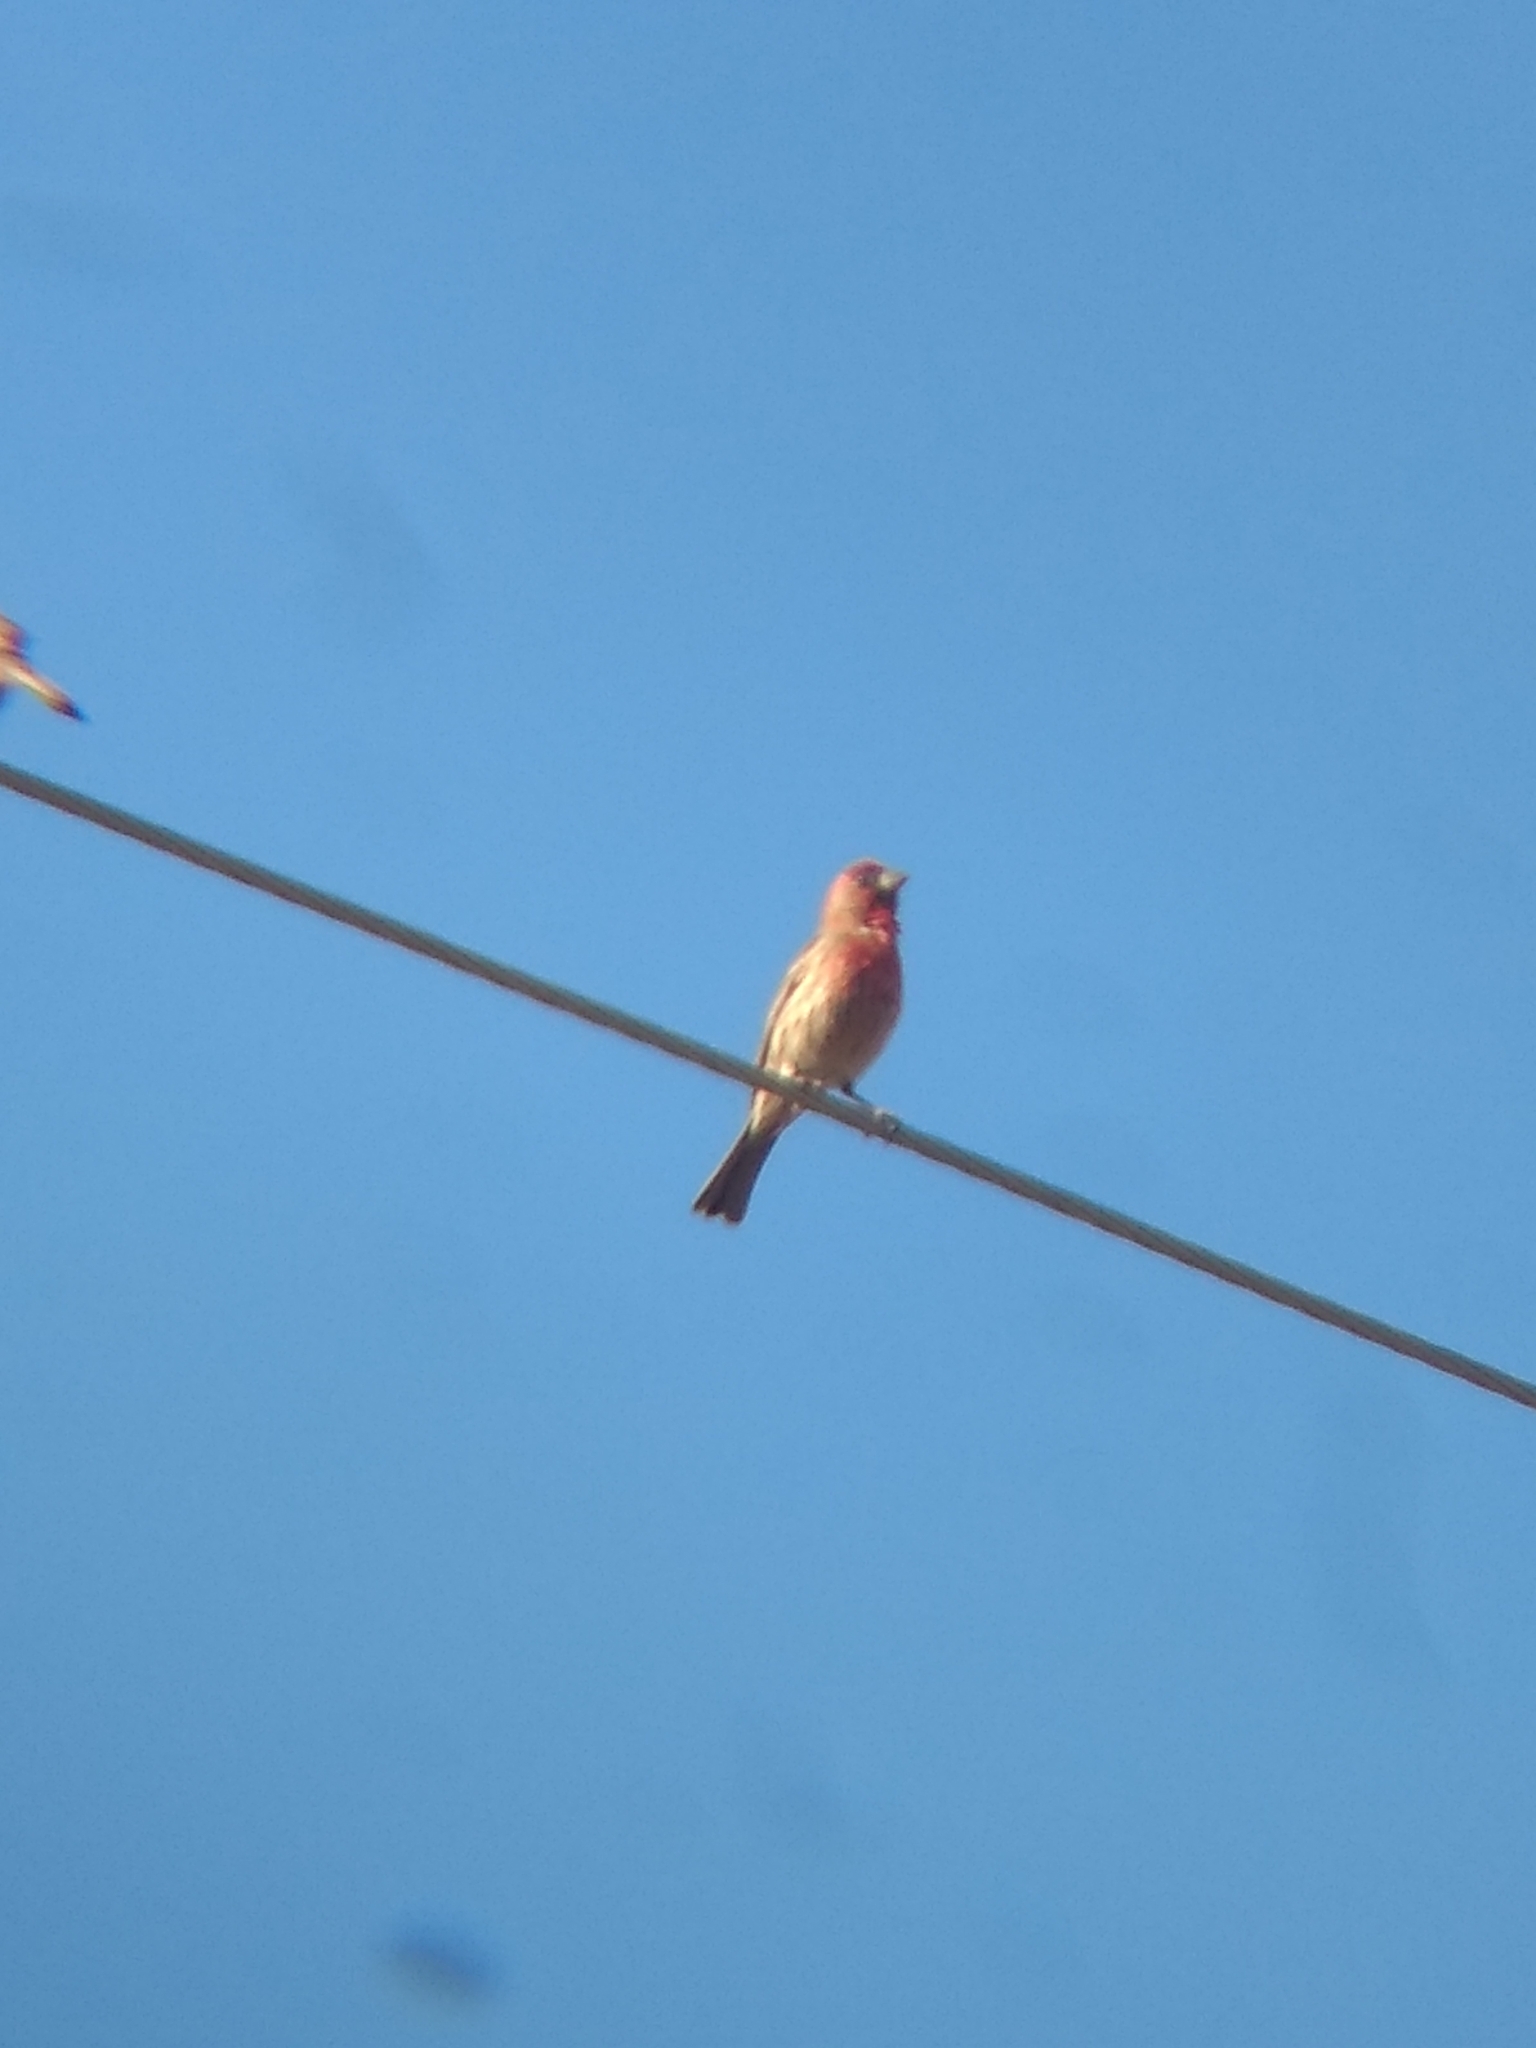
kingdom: Animalia
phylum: Chordata
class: Aves
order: Passeriformes
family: Fringillidae
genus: Haemorhous
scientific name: Haemorhous mexicanus
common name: House finch
